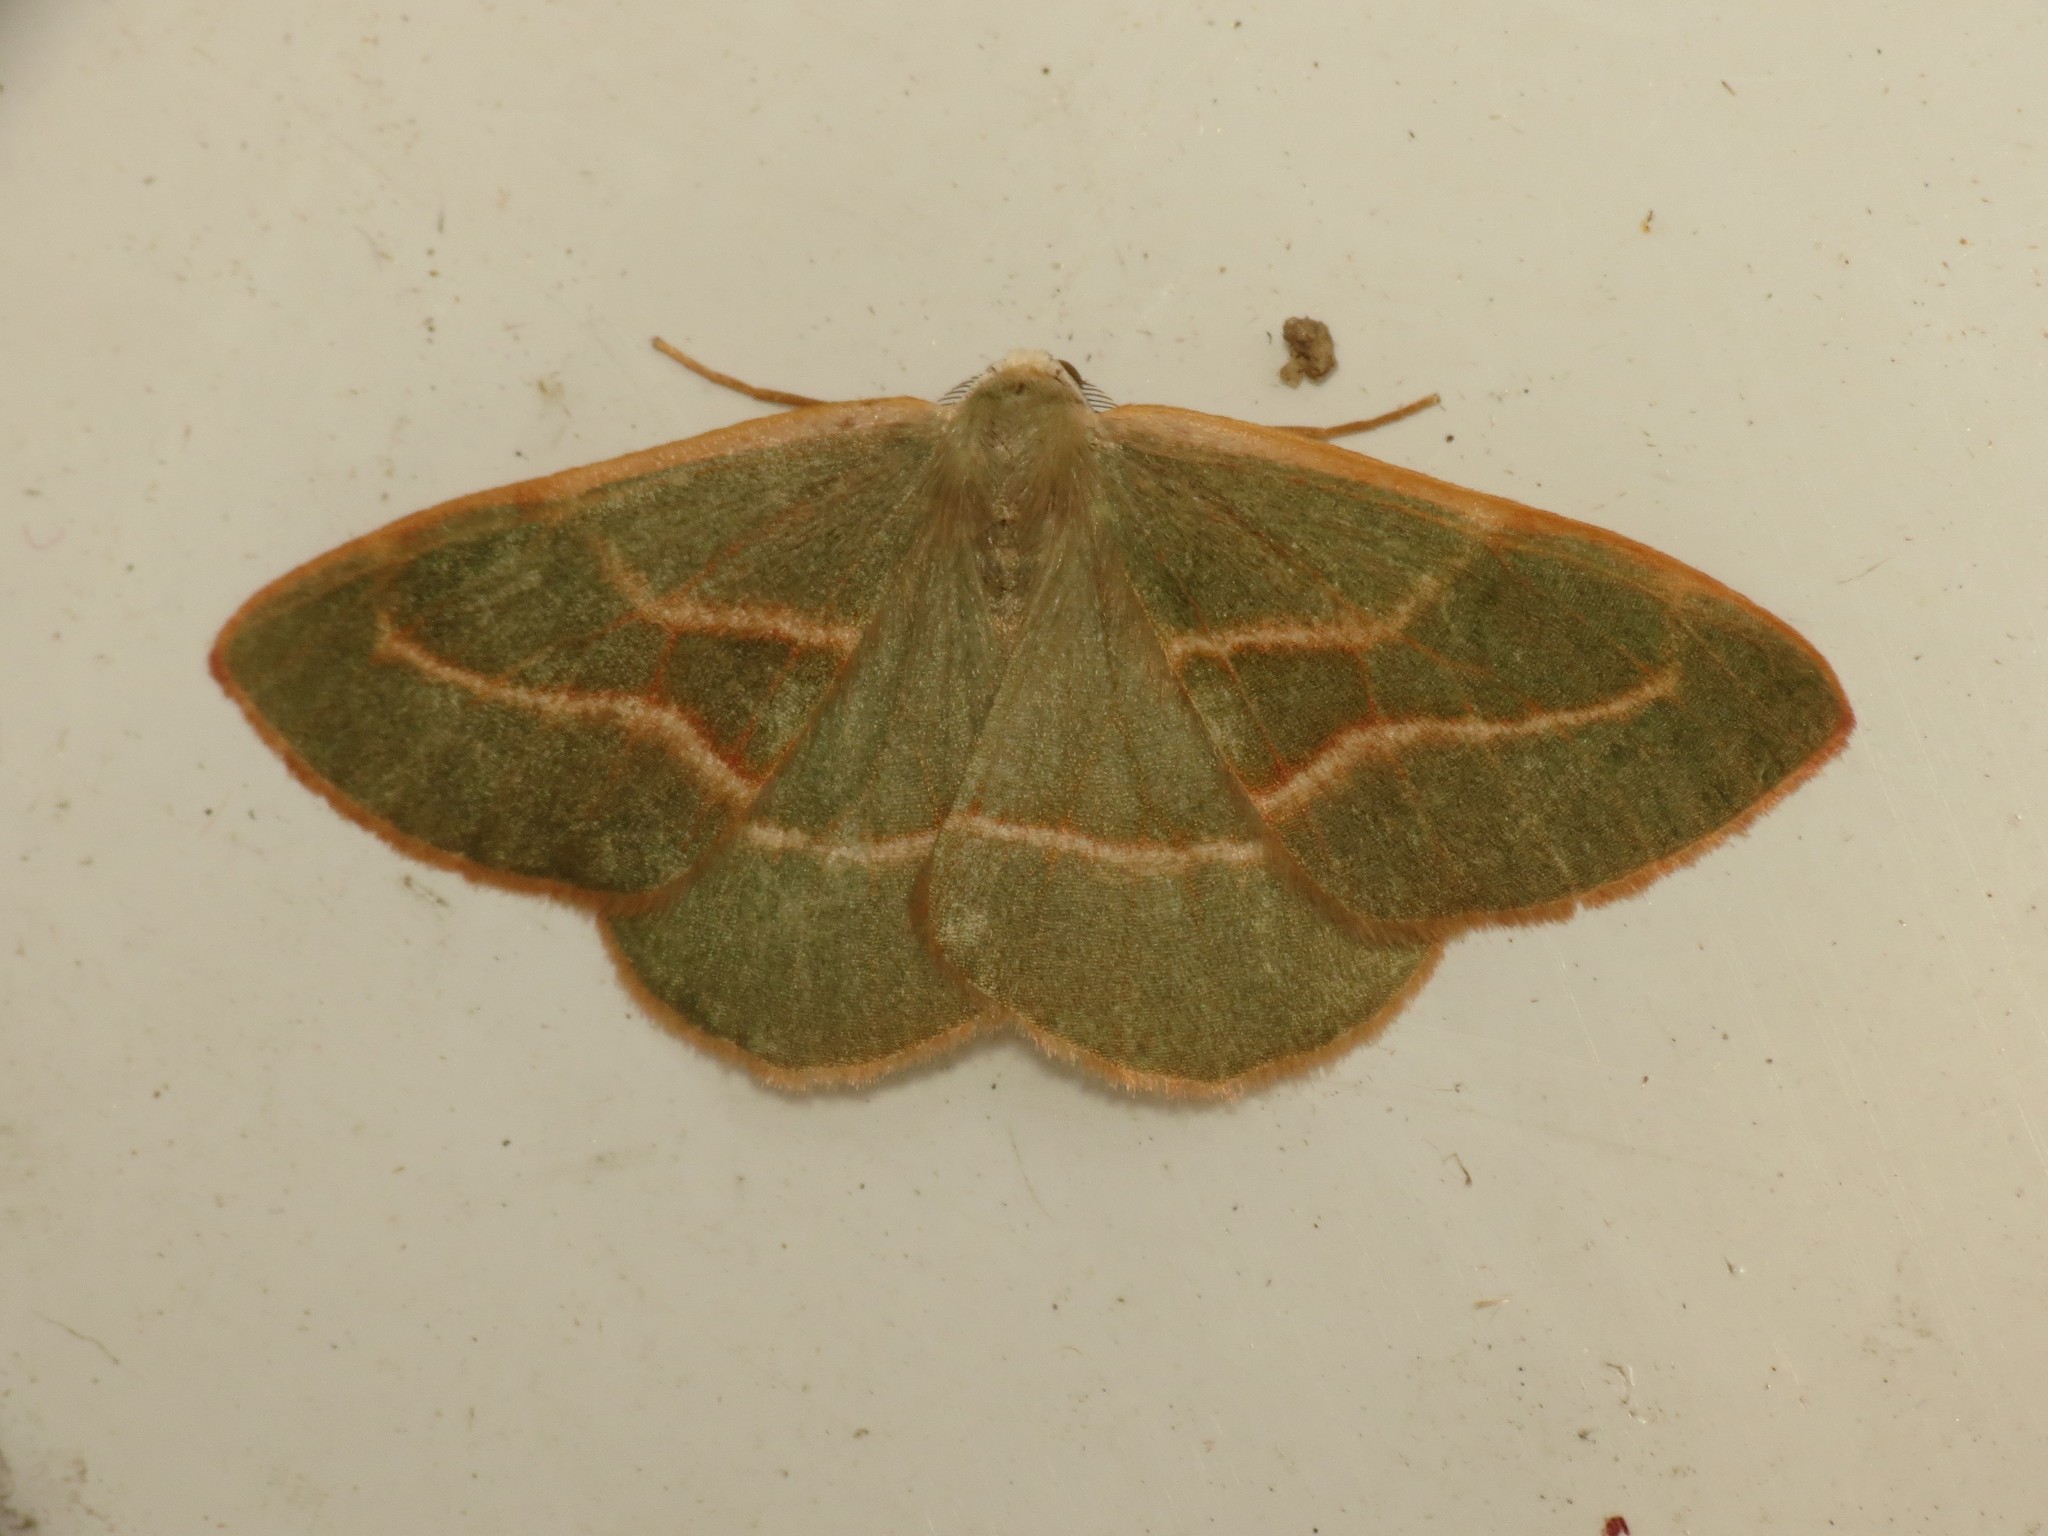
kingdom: Animalia
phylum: Arthropoda
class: Insecta
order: Lepidoptera
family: Geometridae
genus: Hylaea
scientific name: Hylaea fasciaria
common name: Barred red
